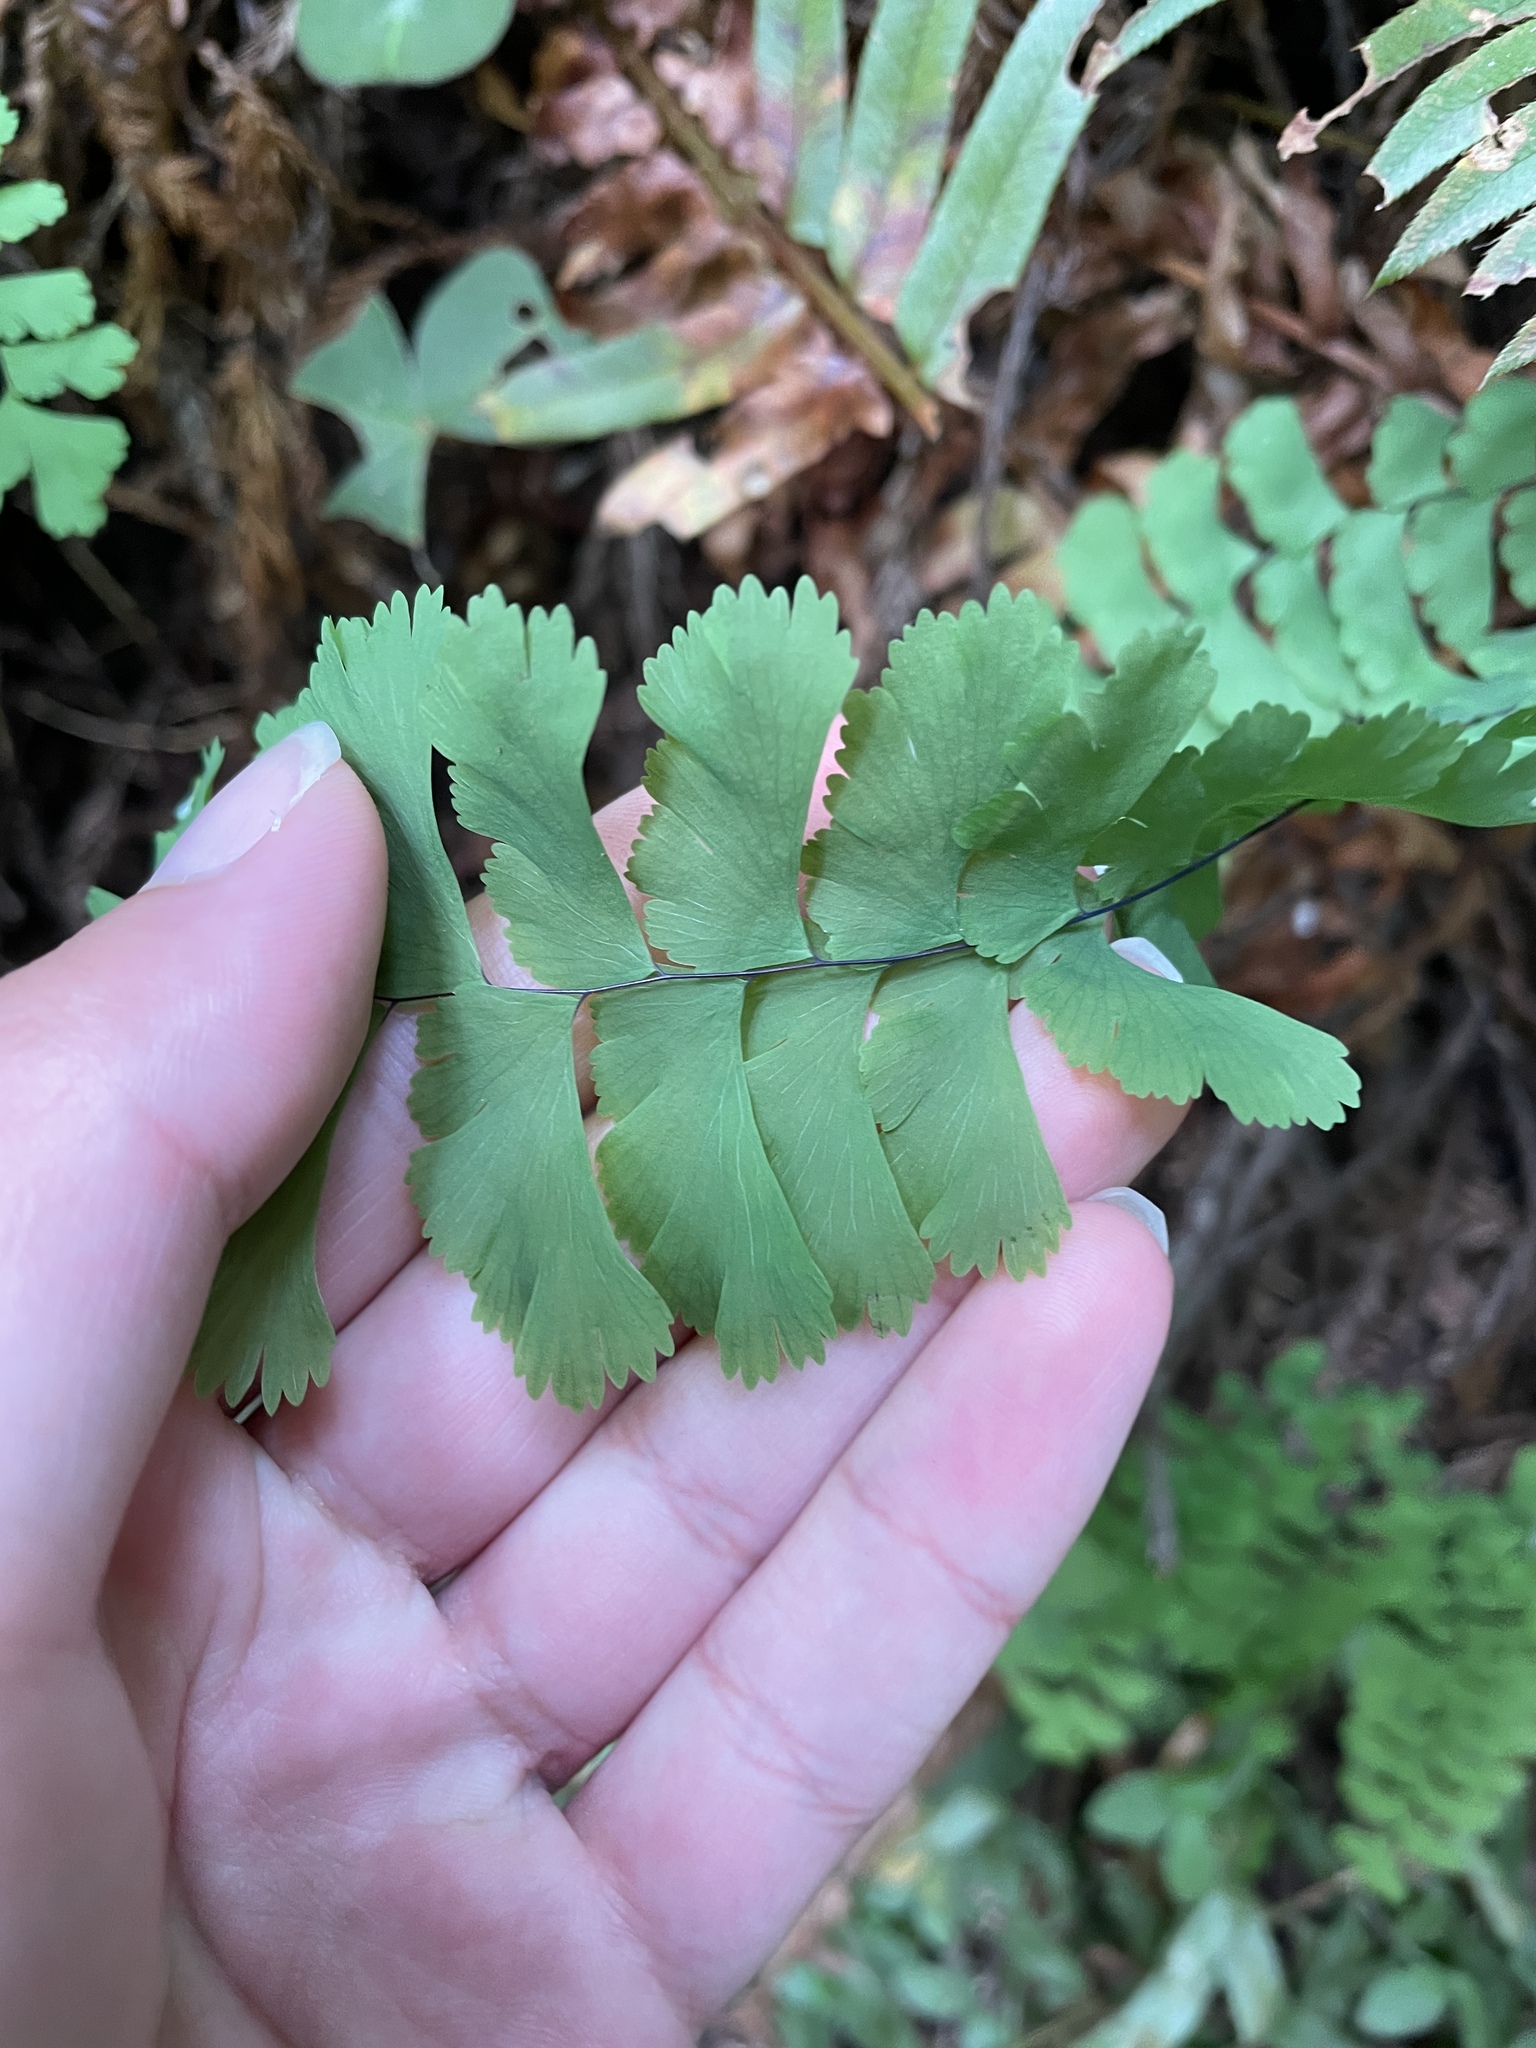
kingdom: Plantae
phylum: Tracheophyta
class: Polypodiopsida
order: Polypodiales
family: Pteridaceae
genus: Adiantum
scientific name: Adiantum aleuticum
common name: Aleutian maidenhair fern
